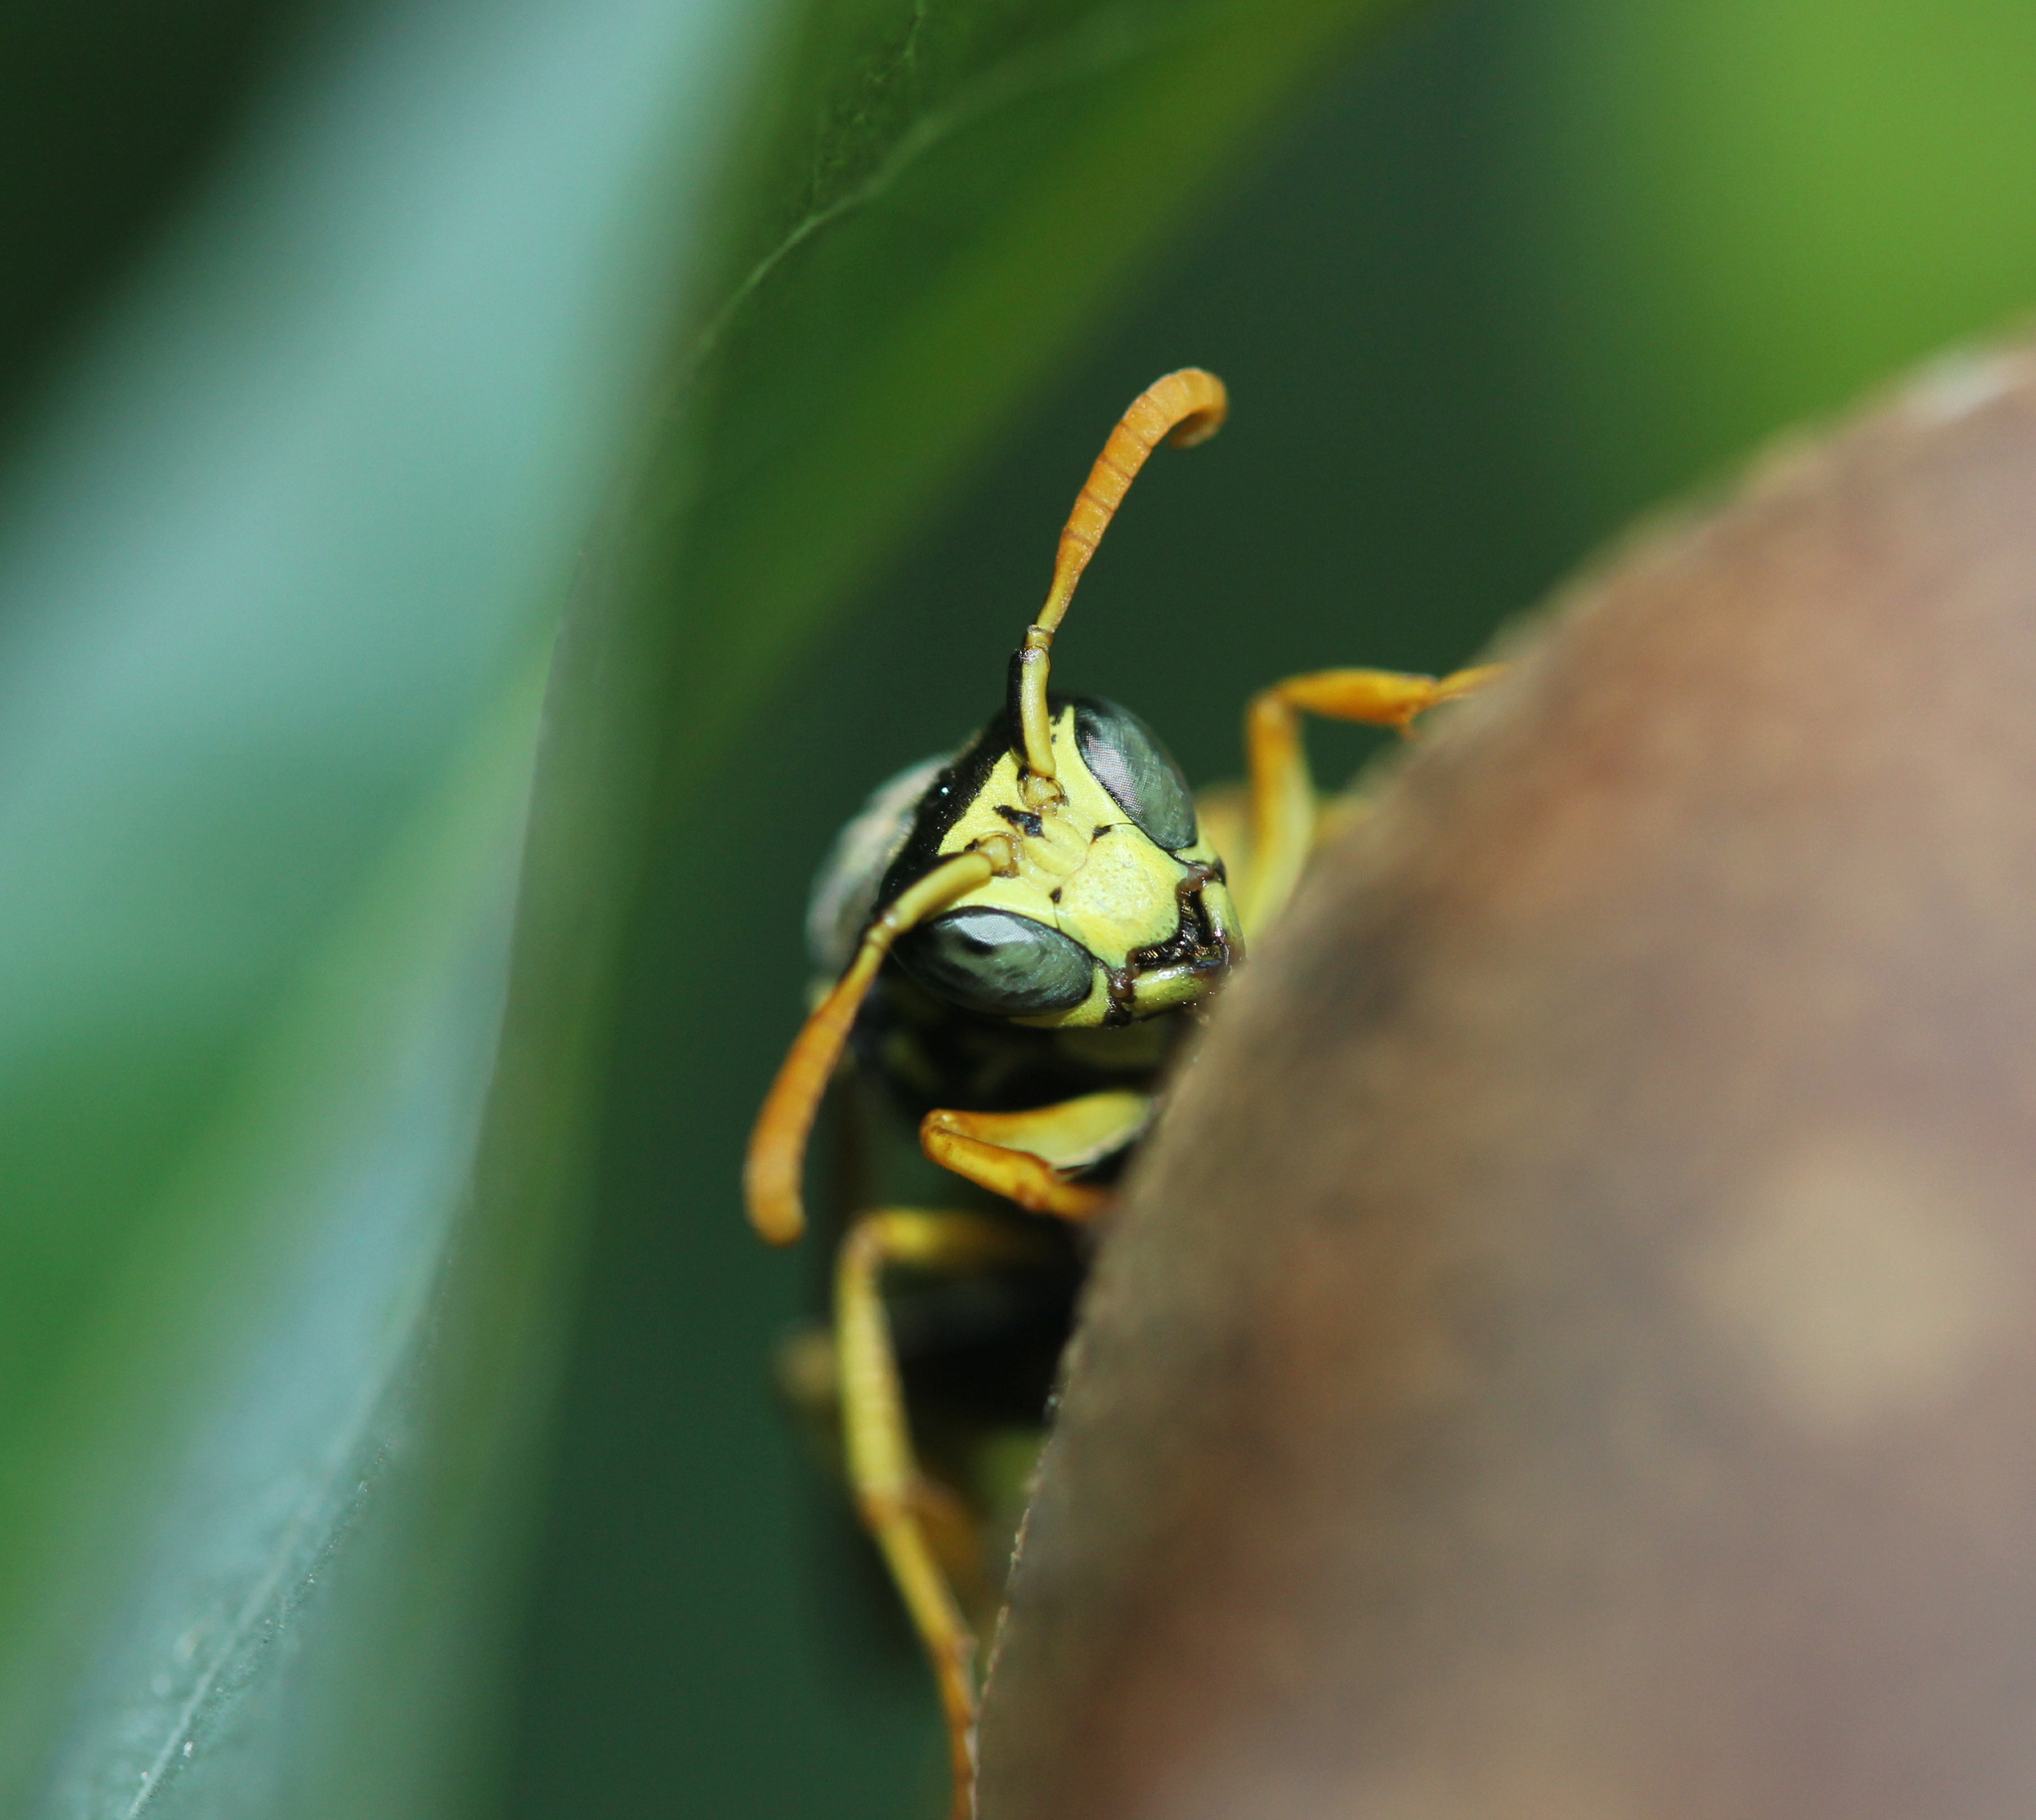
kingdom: Animalia
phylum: Arthropoda
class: Insecta
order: Hymenoptera
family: Eumenidae
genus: Polistes
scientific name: Polistes dominula
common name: Paper wasp
